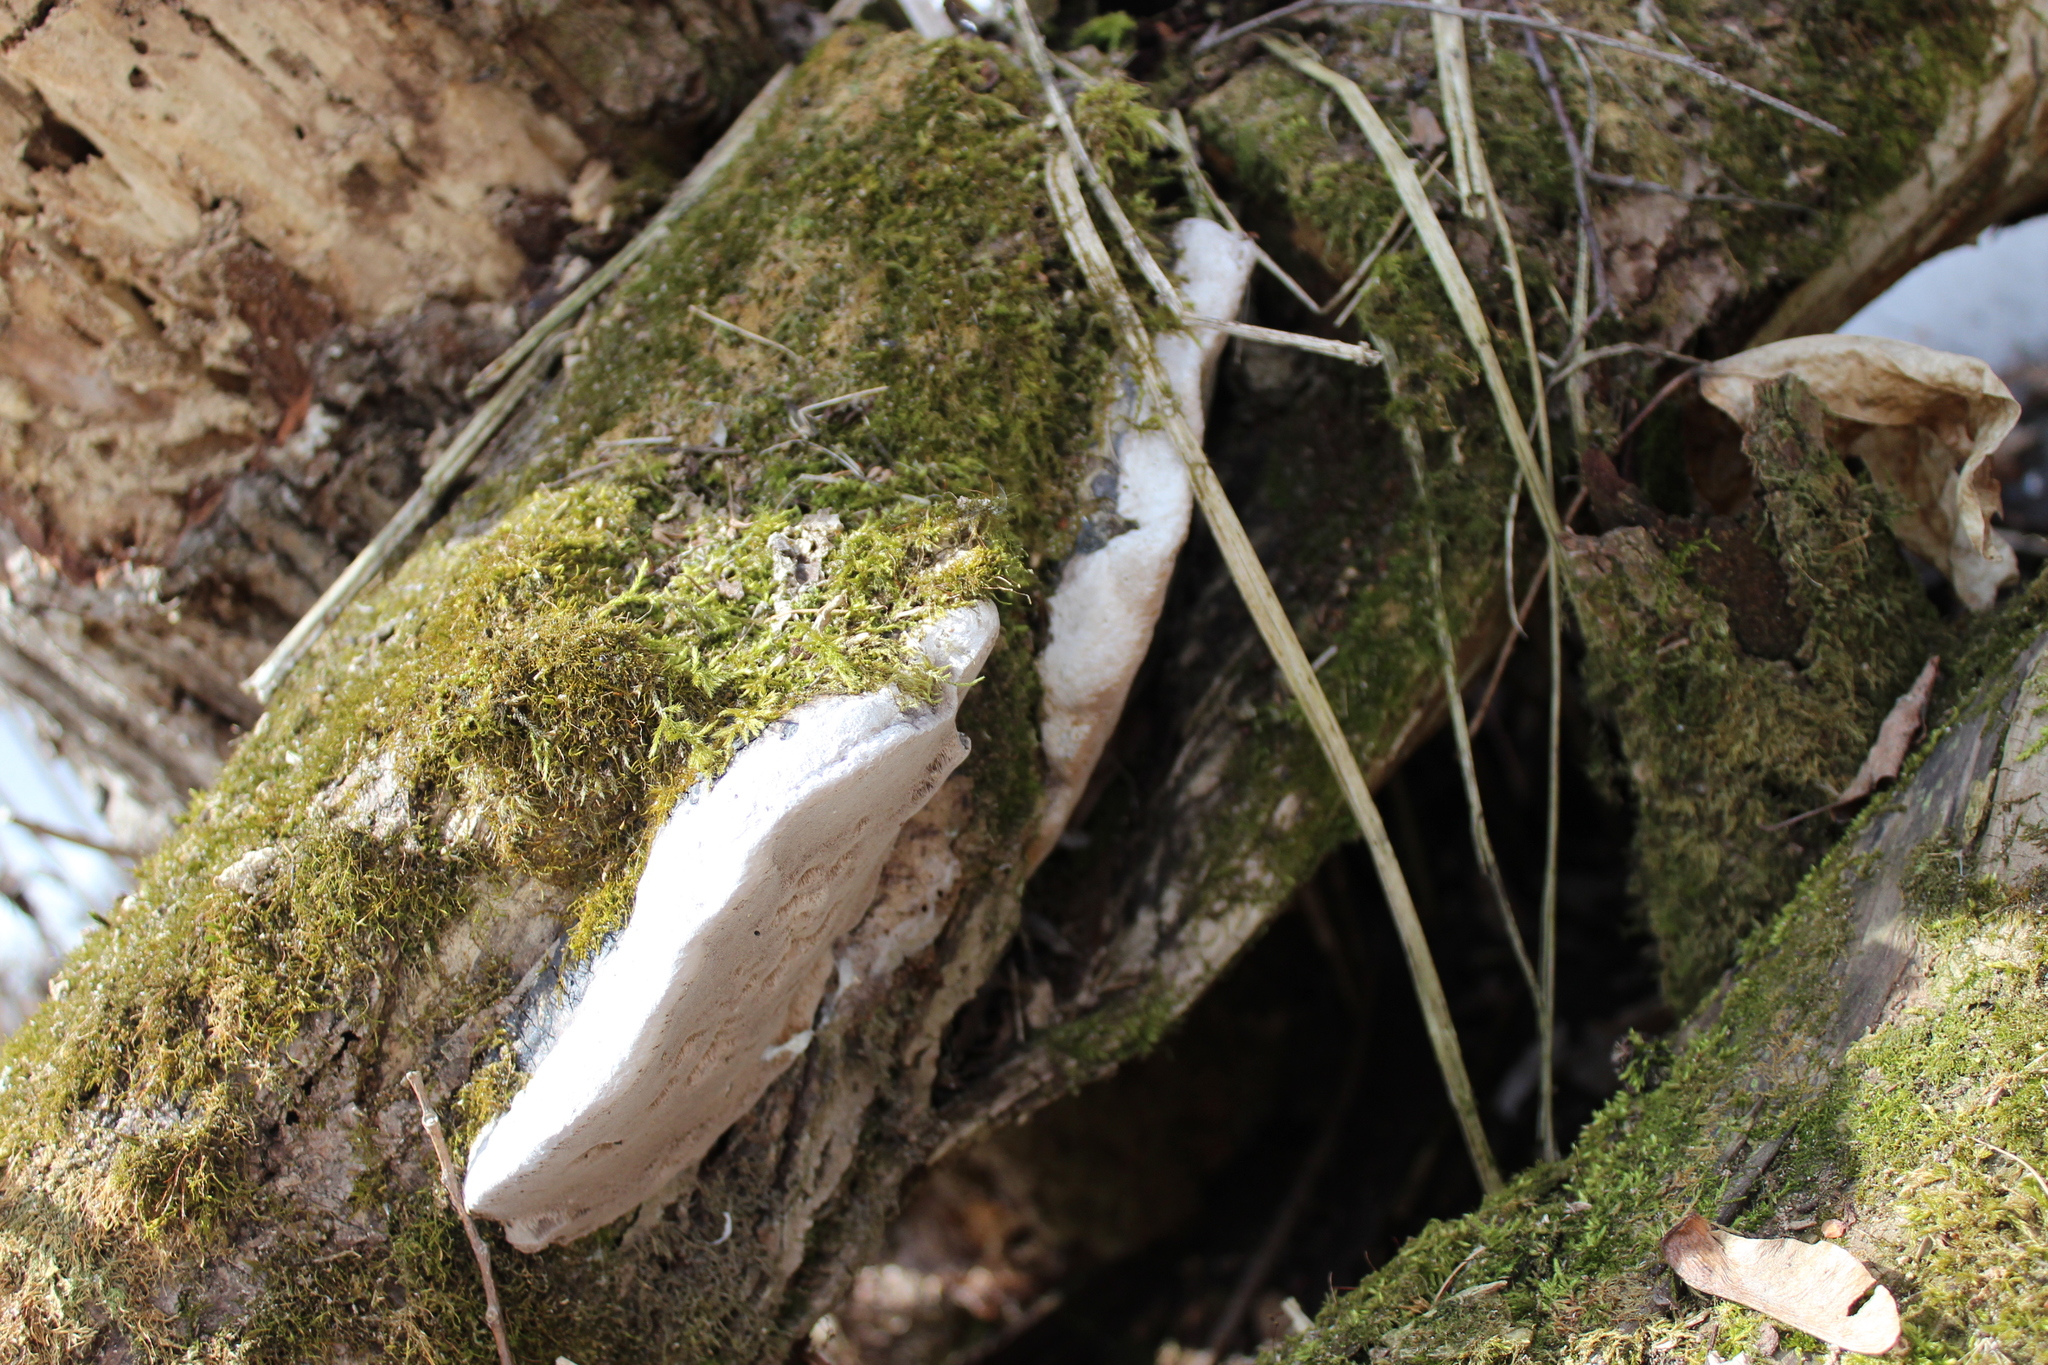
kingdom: Fungi
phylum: Basidiomycota
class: Agaricomycetes
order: Hymenochaetales
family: Hymenochaetaceae
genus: Phellinus
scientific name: Phellinus igniarius
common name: Willow bracket
